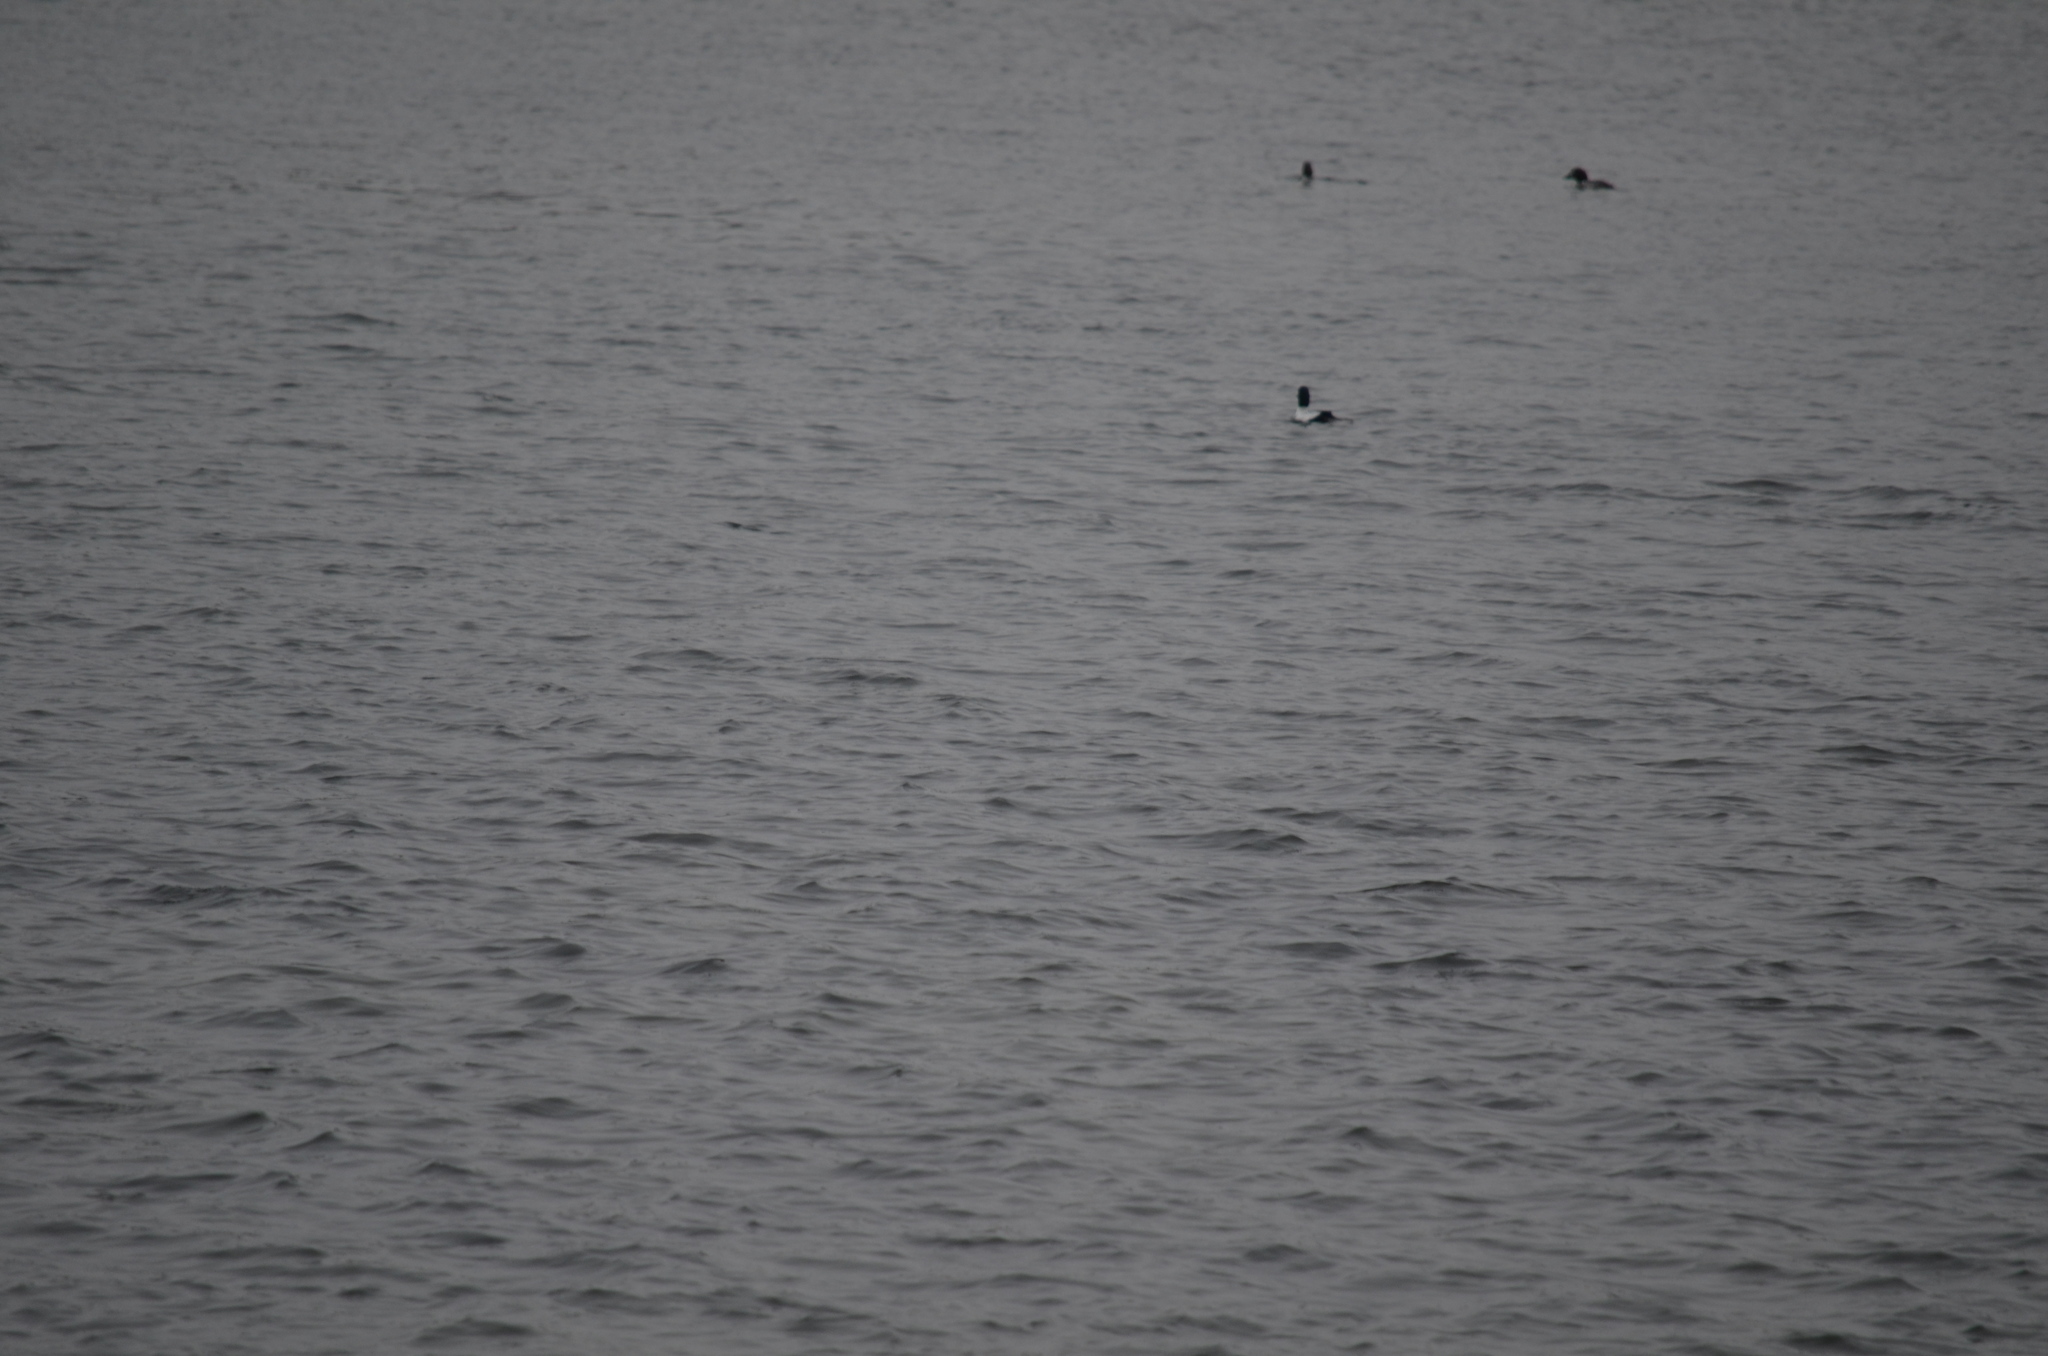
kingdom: Animalia
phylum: Chordata
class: Aves
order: Anseriformes
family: Anatidae
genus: Bucephala
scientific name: Bucephala clangula
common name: Common goldeneye
